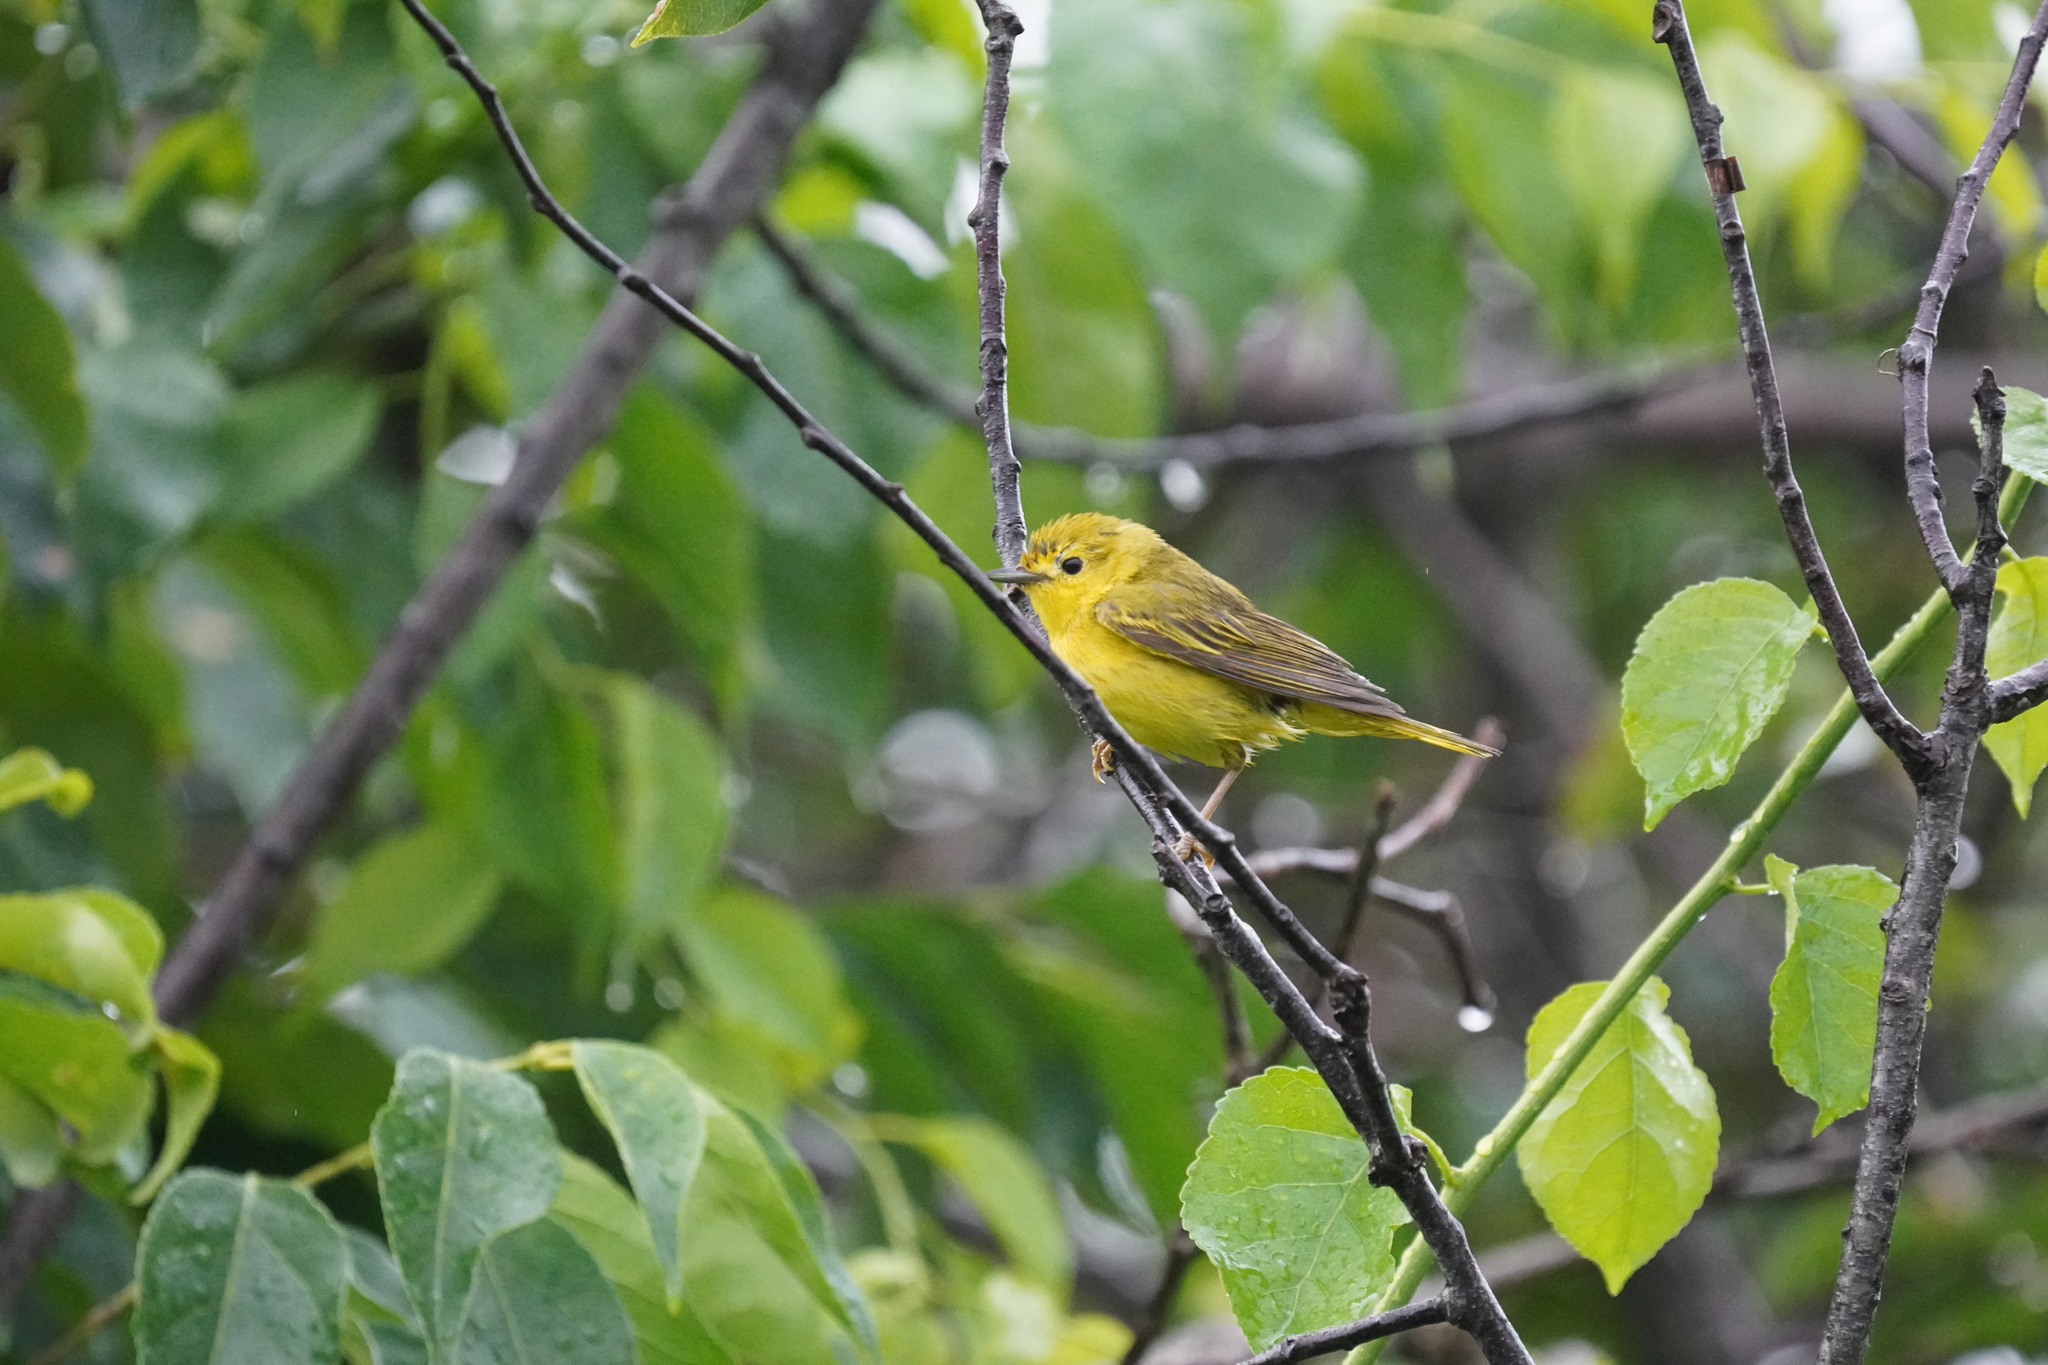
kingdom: Animalia
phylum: Chordata
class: Aves
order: Passeriformes
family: Parulidae
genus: Setophaga
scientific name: Setophaga petechia
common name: Yellow warbler
